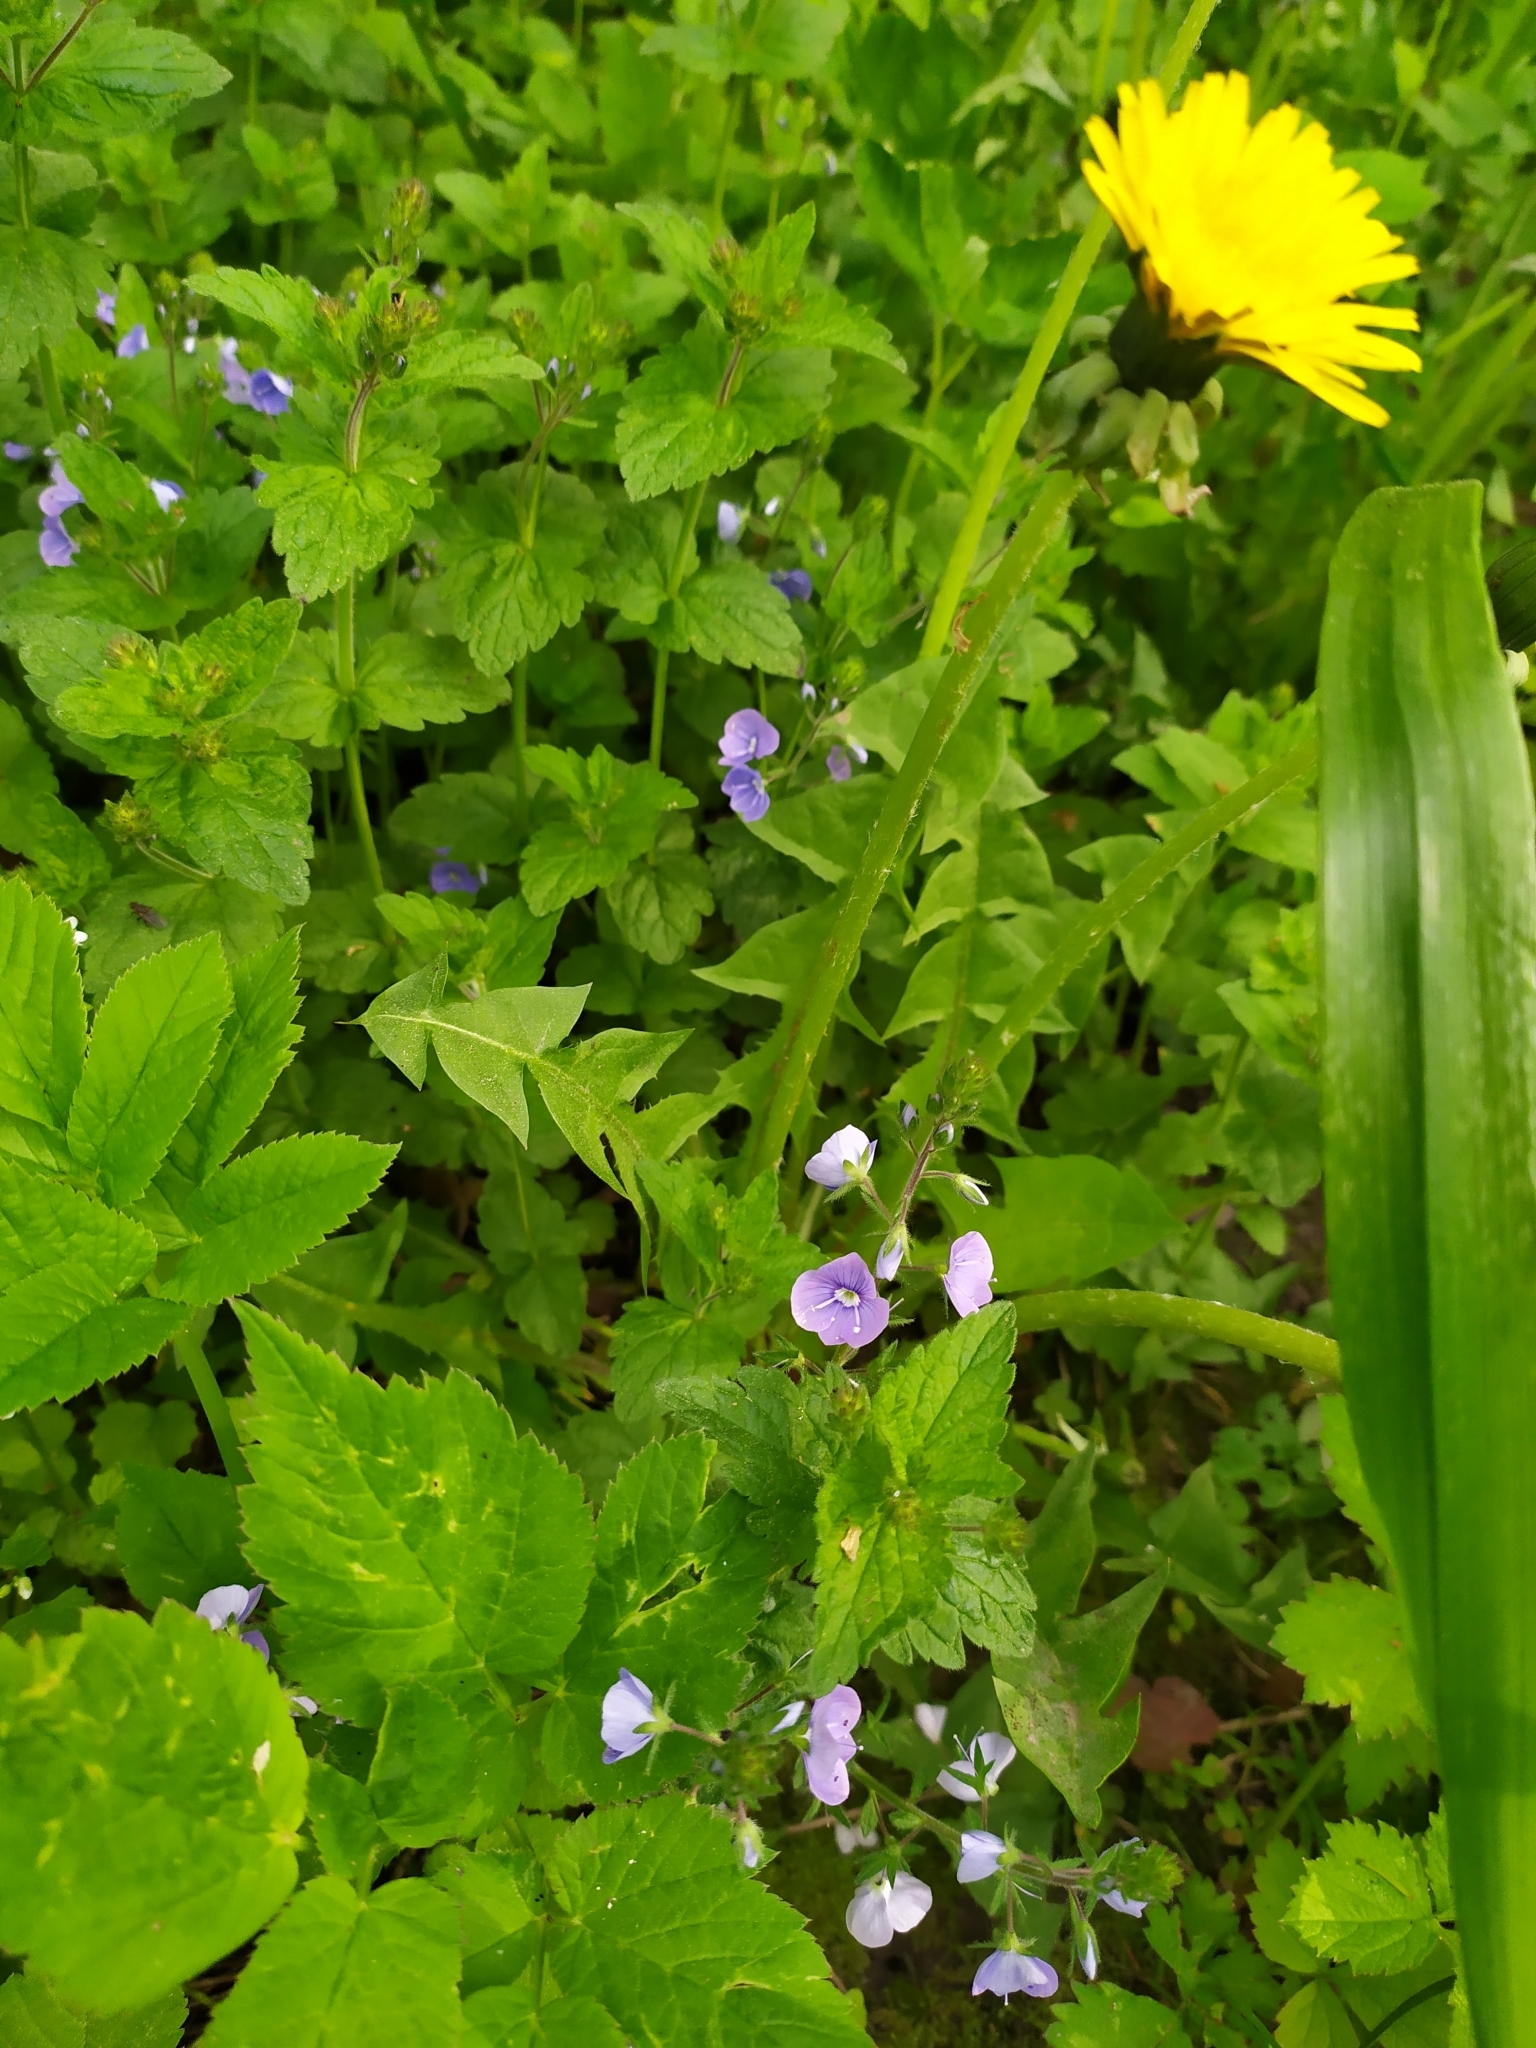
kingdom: Plantae
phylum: Tracheophyta
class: Magnoliopsida
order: Lamiales
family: Plantaginaceae
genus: Veronica
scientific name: Veronica chamaedrys
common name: Germander speedwell
